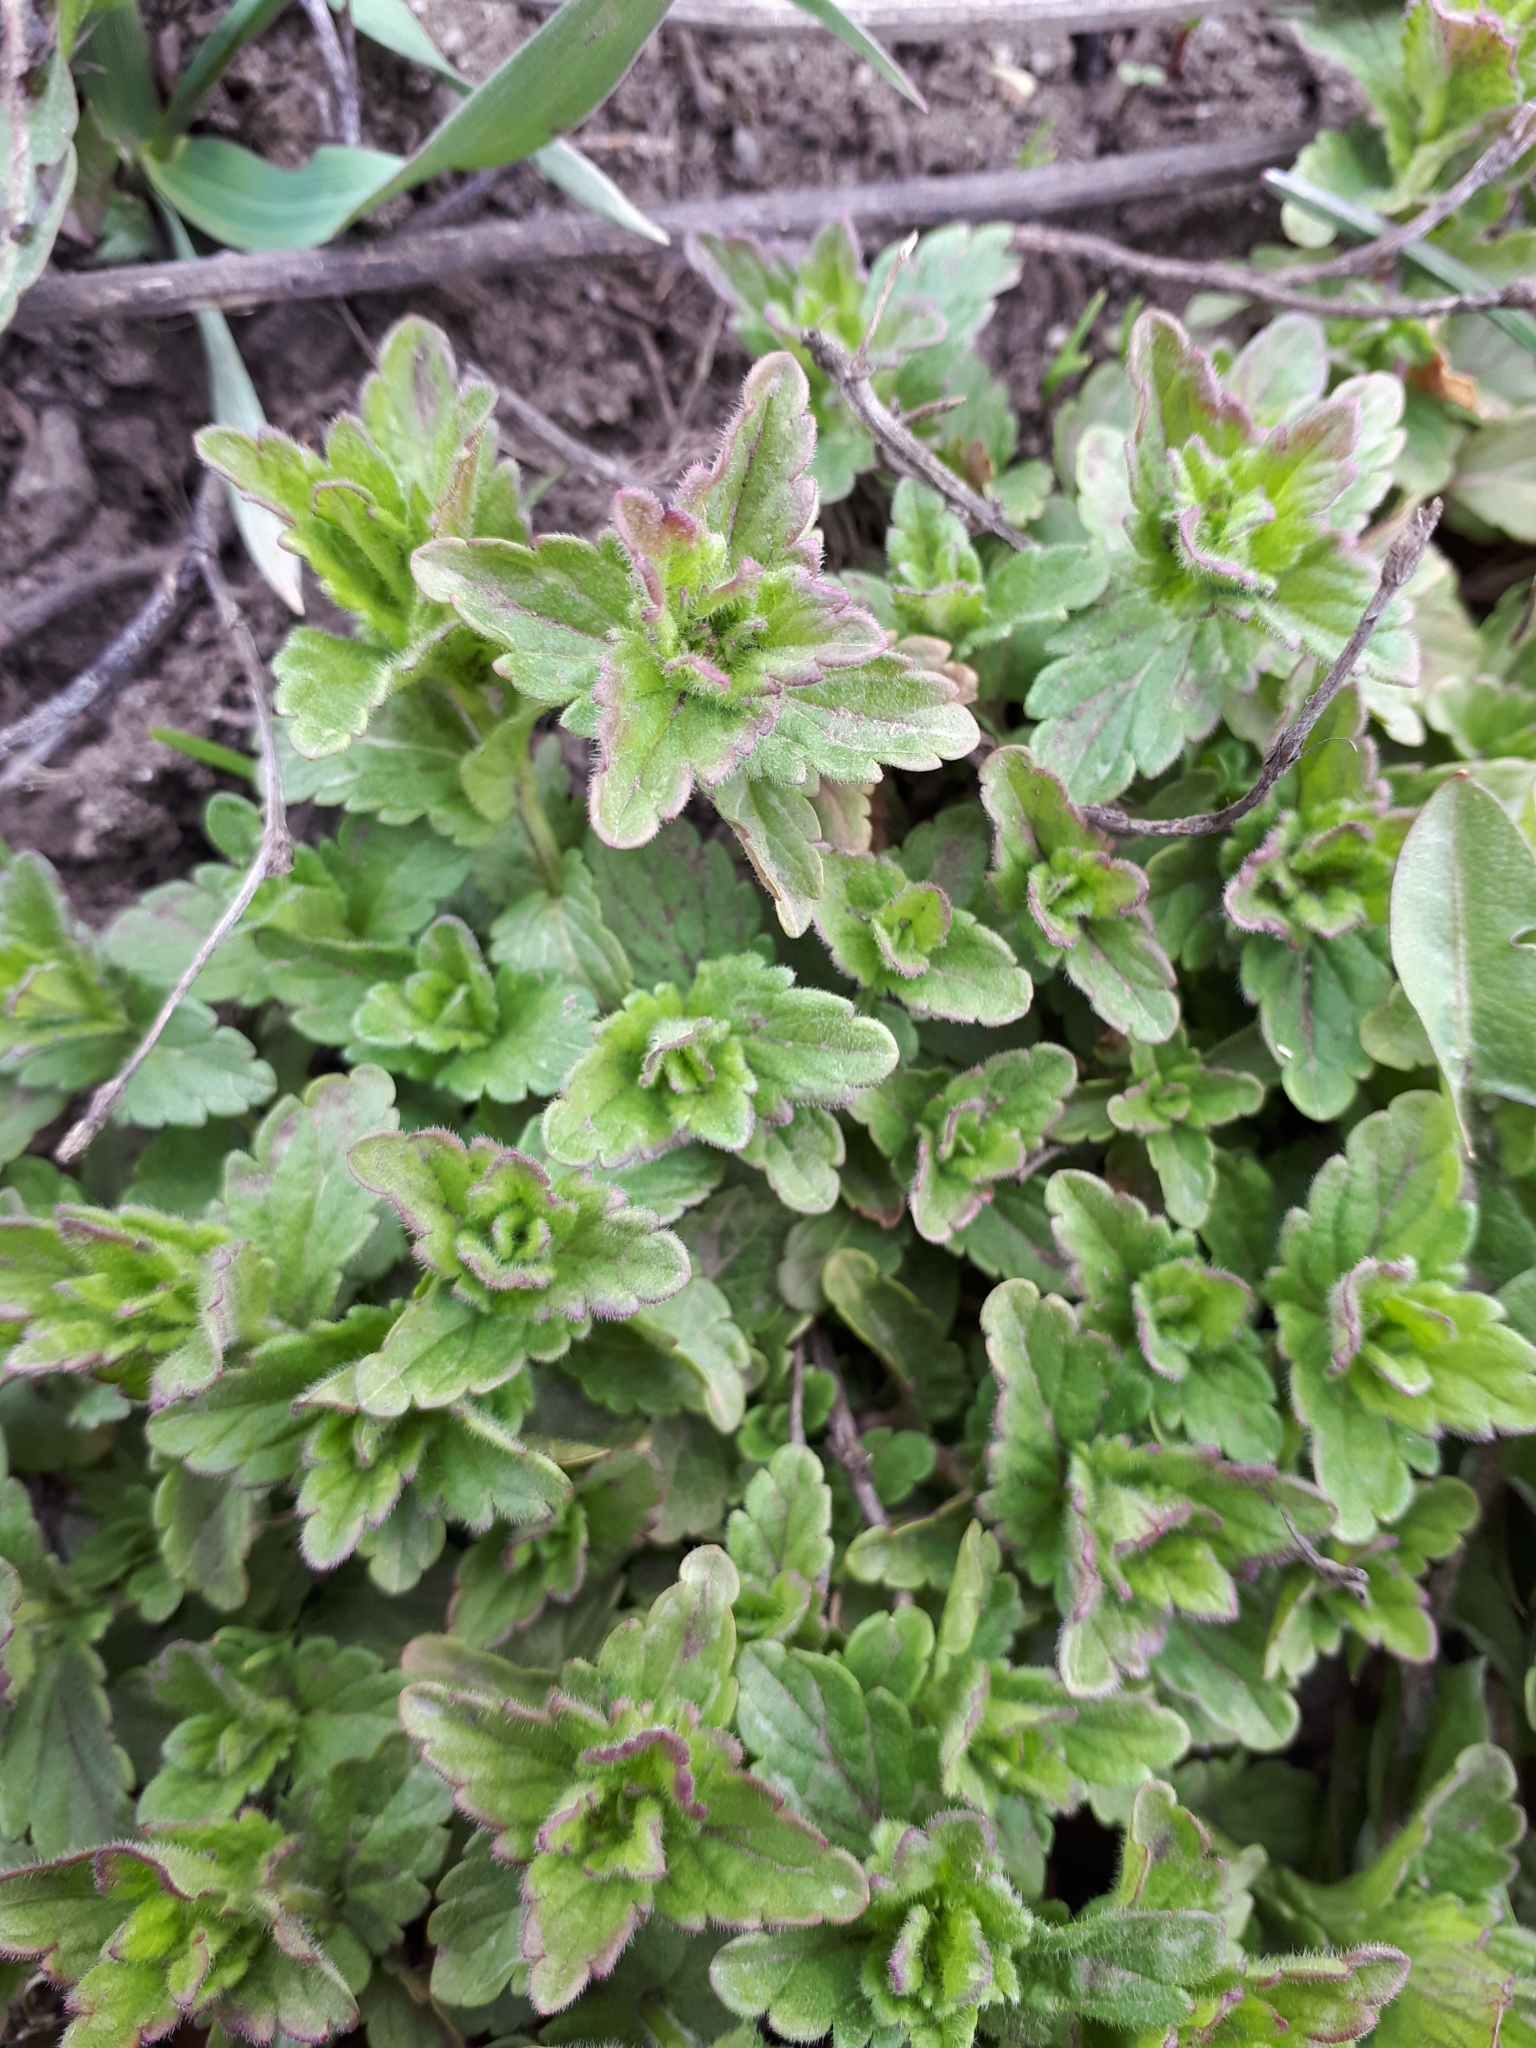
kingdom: Plantae
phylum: Tracheophyta
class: Magnoliopsida
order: Lamiales
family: Plantaginaceae
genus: Veronica
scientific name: Veronica chamaedrys
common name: Germander speedwell
